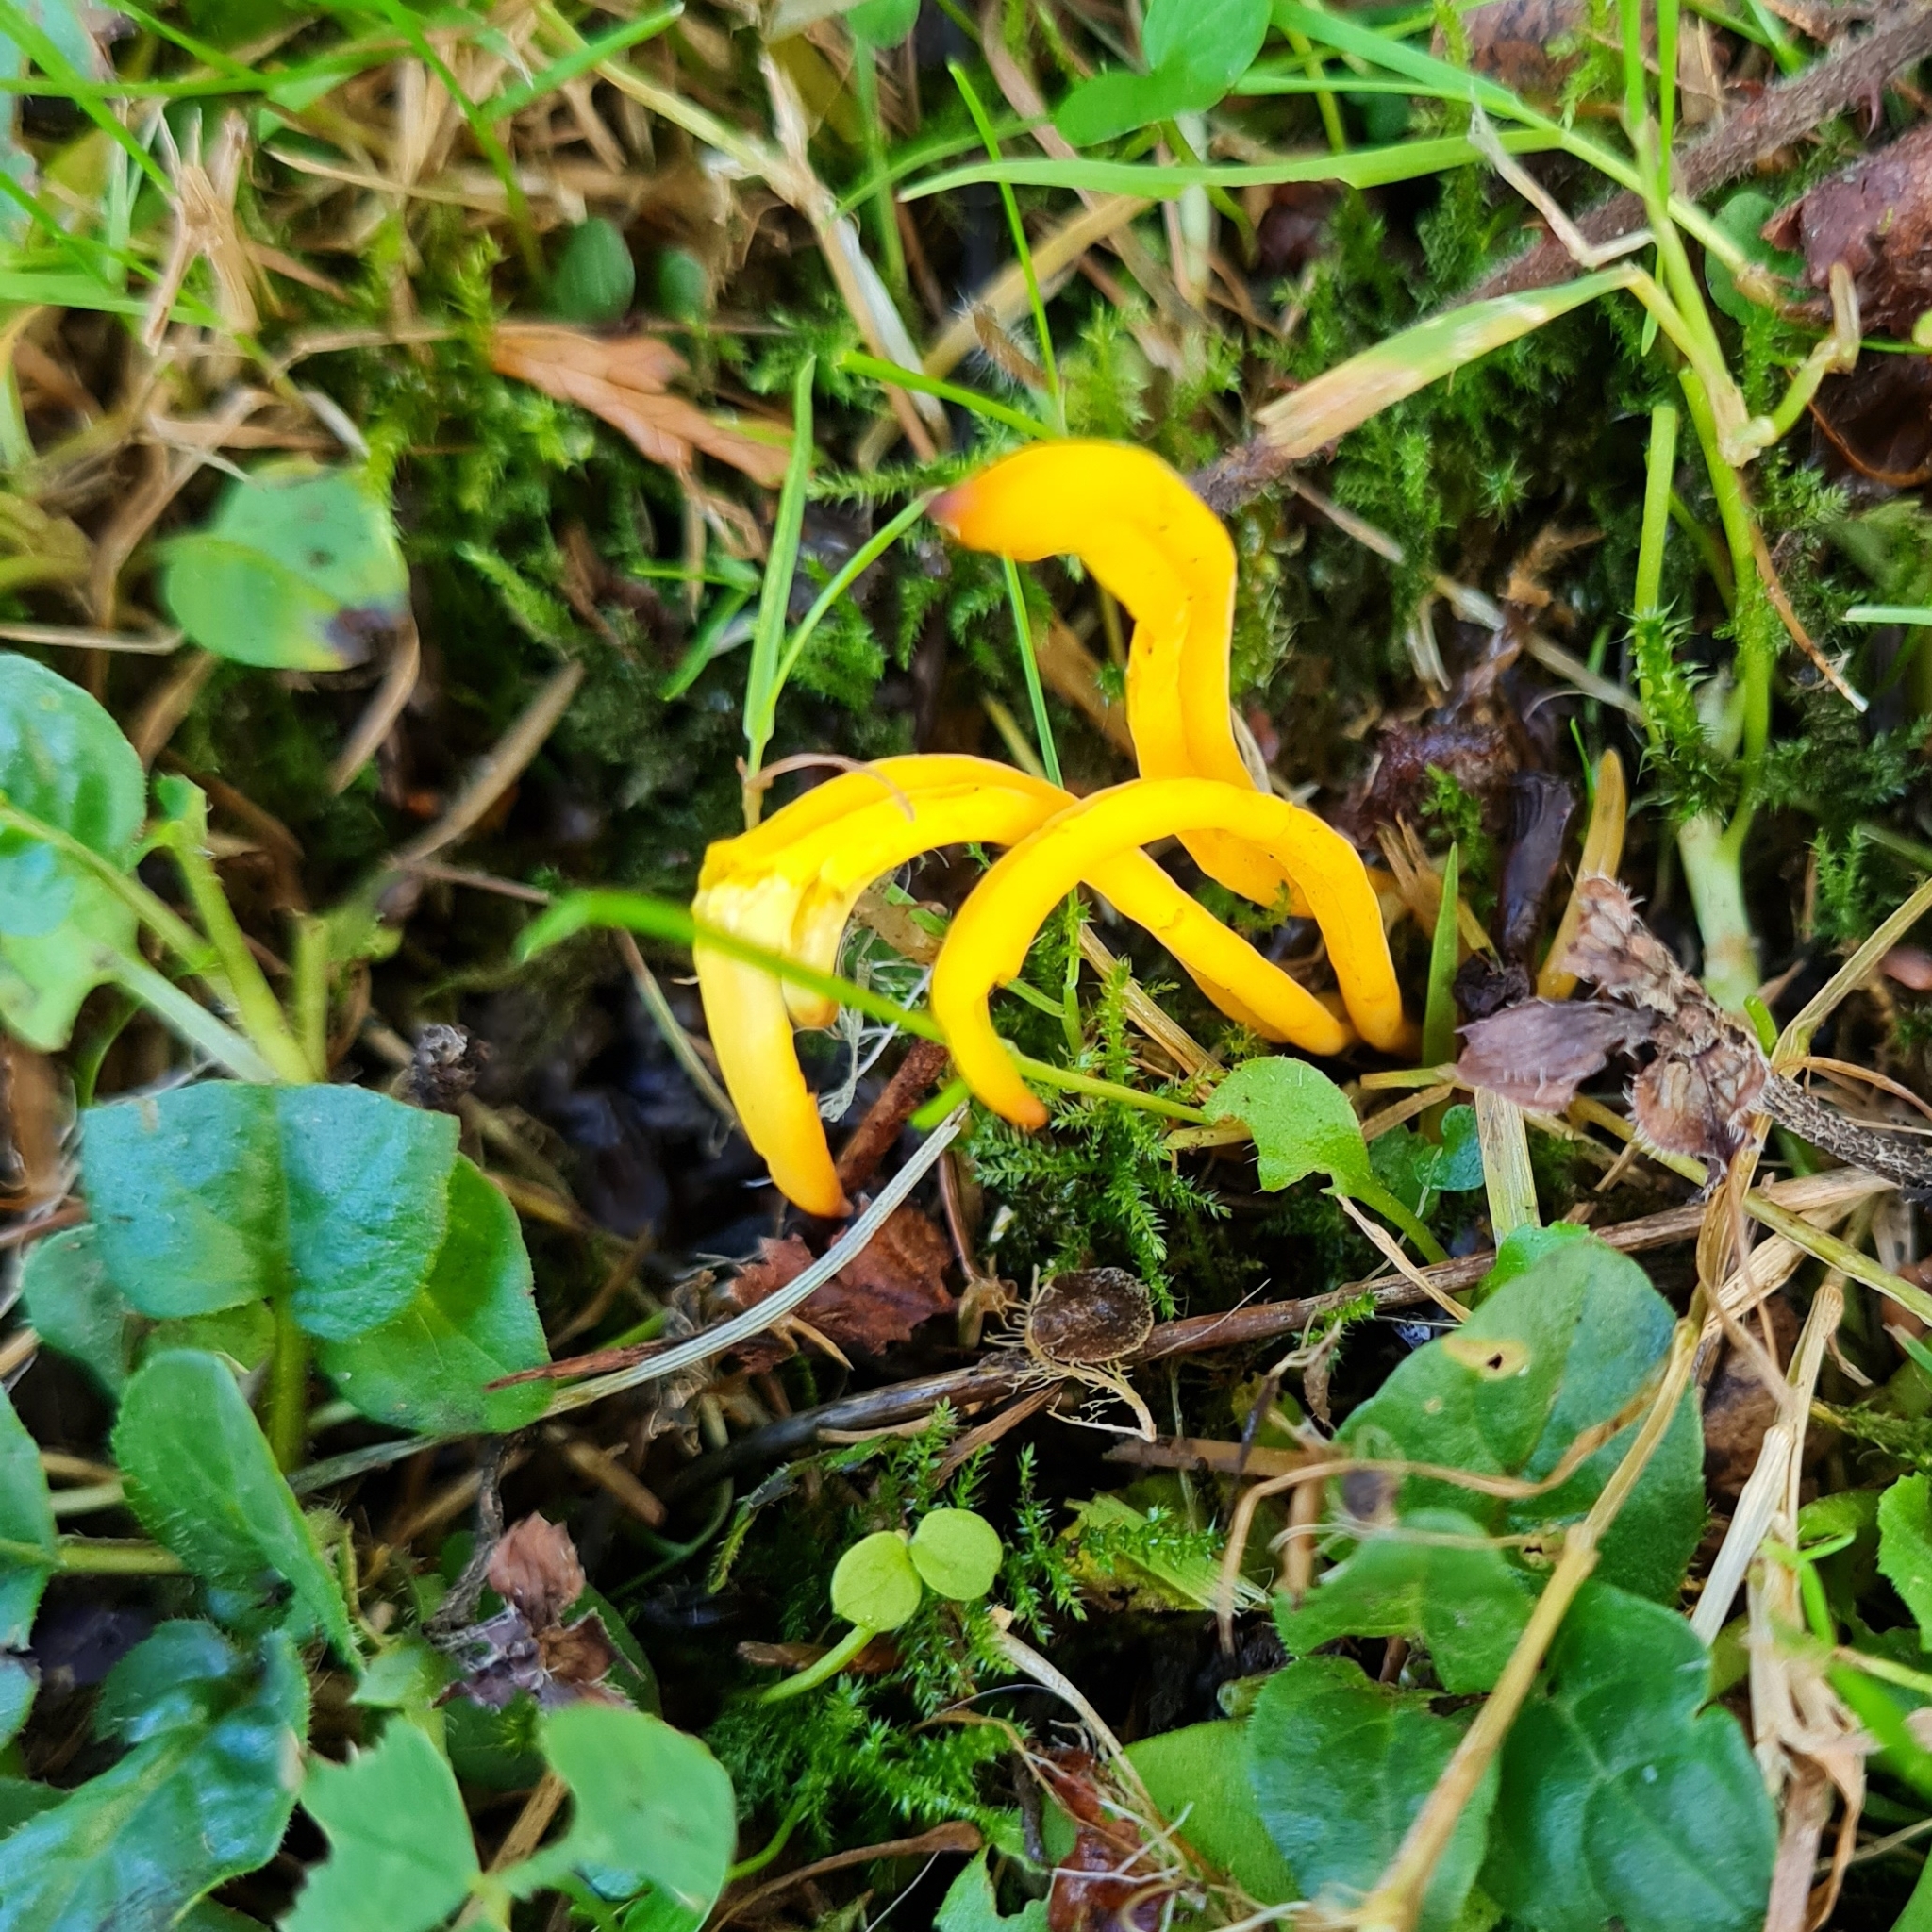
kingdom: Fungi
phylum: Basidiomycota
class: Agaricomycetes
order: Agaricales
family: Clavariaceae
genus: Clavulinopsis
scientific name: Clavulinopsis helvola
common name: Yellow club
